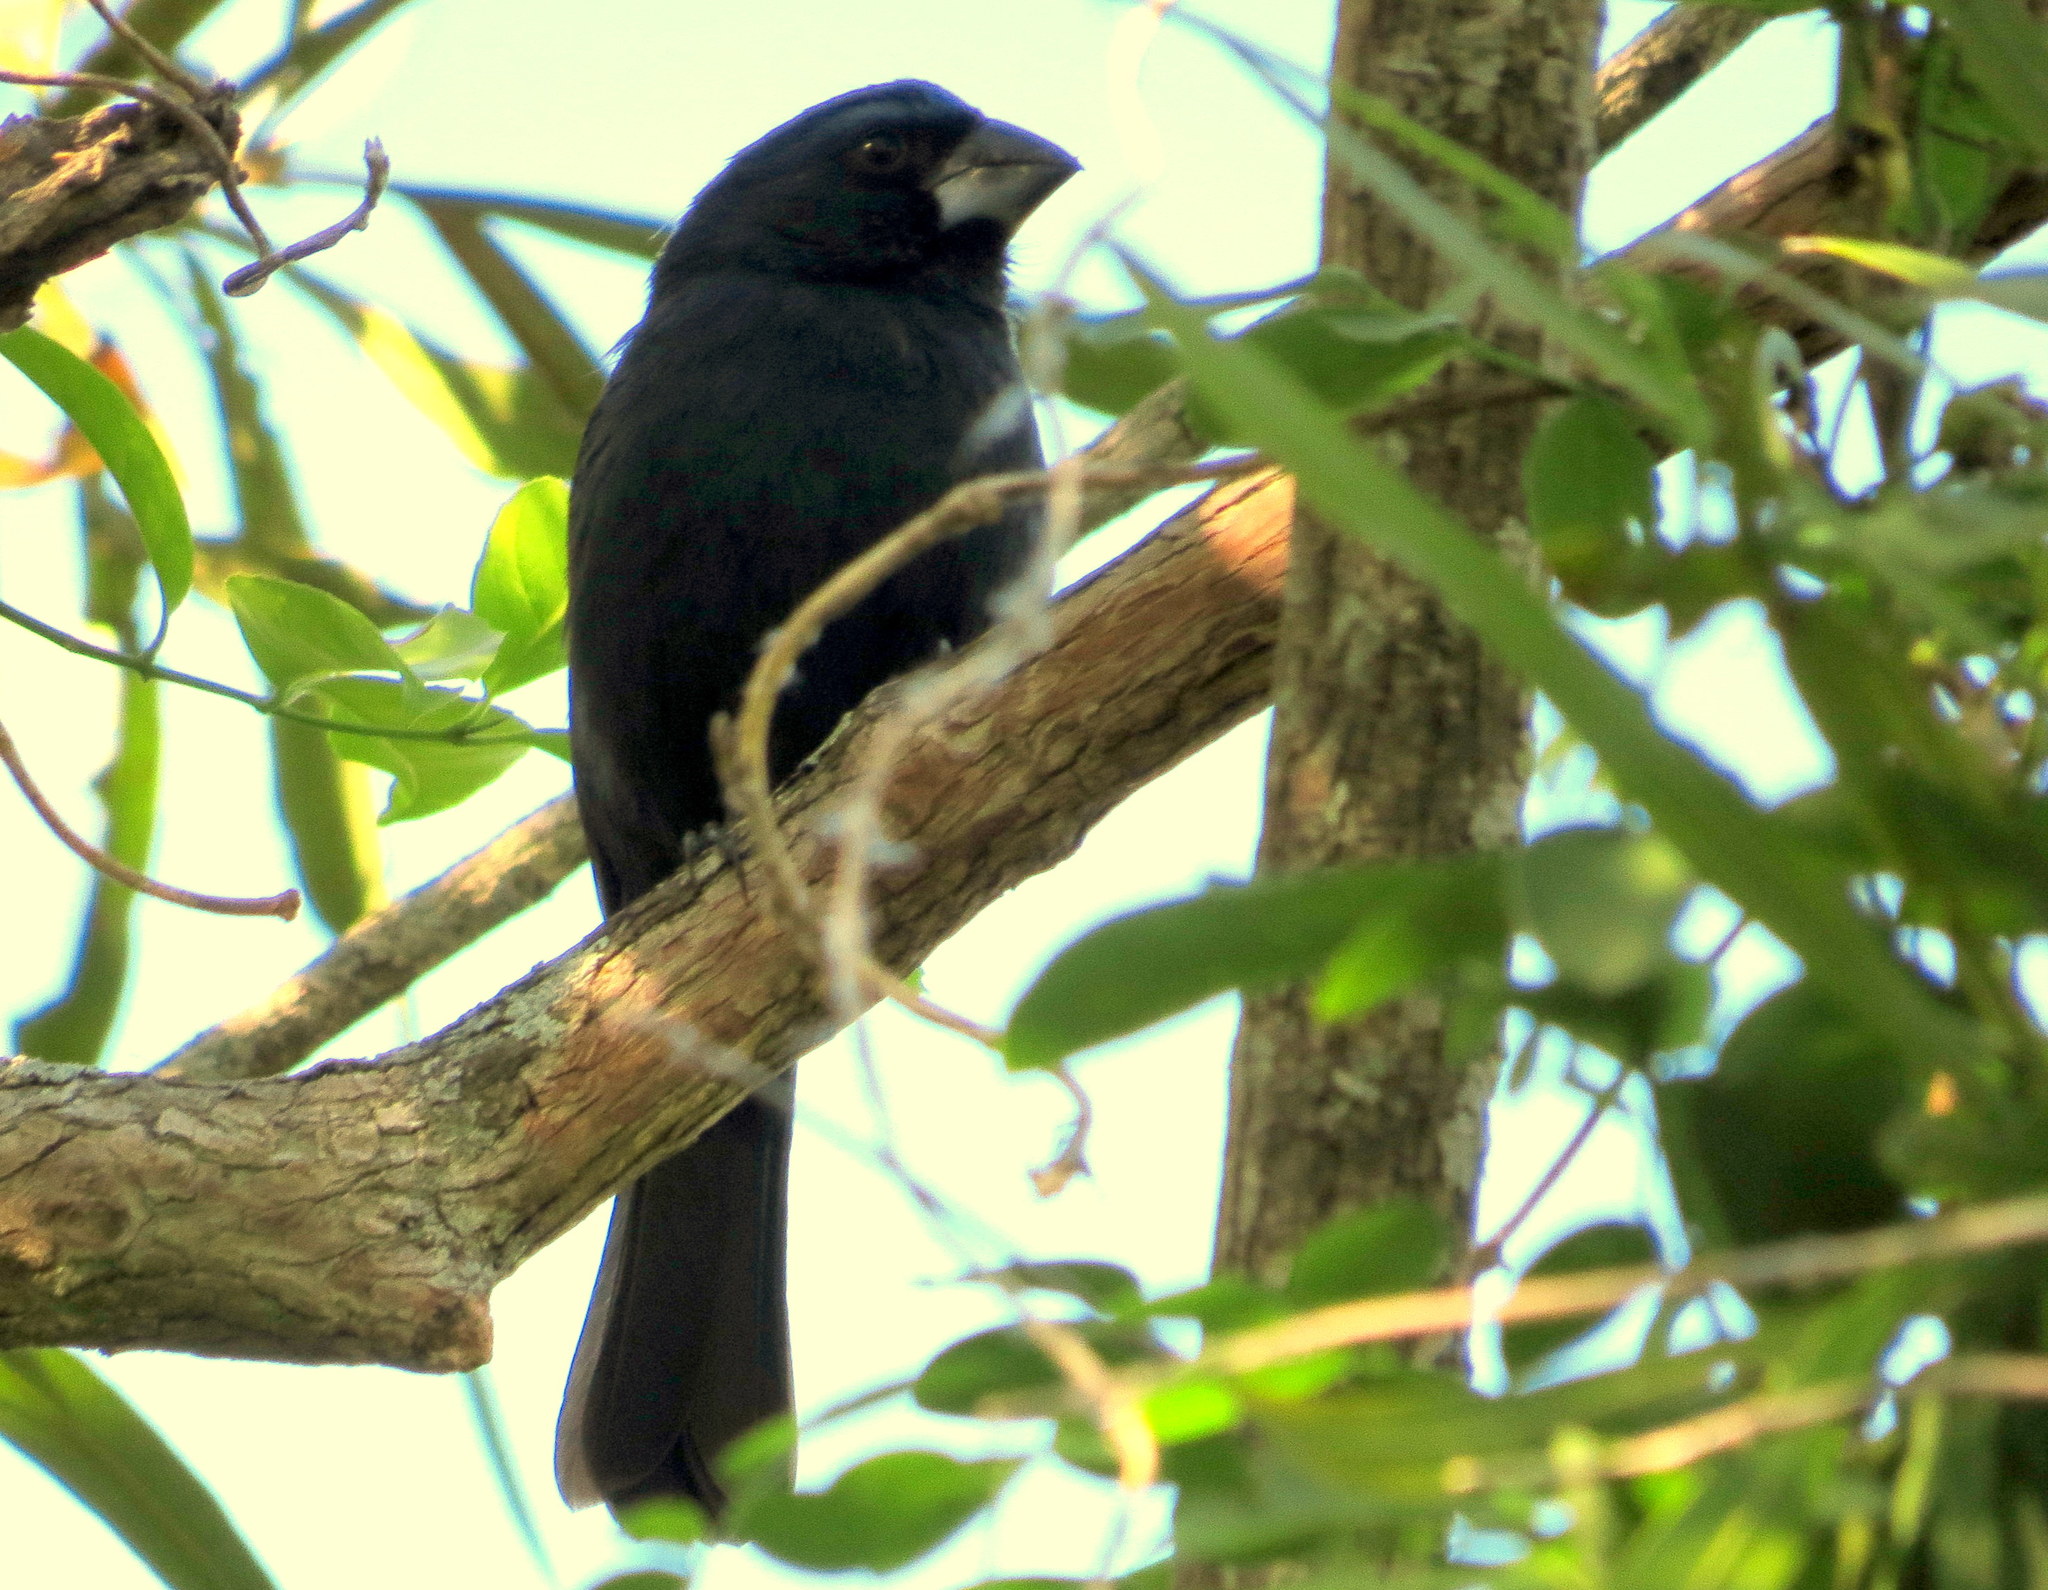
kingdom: Animalia
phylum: Chordata
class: Aves
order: Passeriformes
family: Cardinalidae
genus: Cyanoloxia
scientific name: Cyanoloxia brissonii
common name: Ultramarine grosbeak
